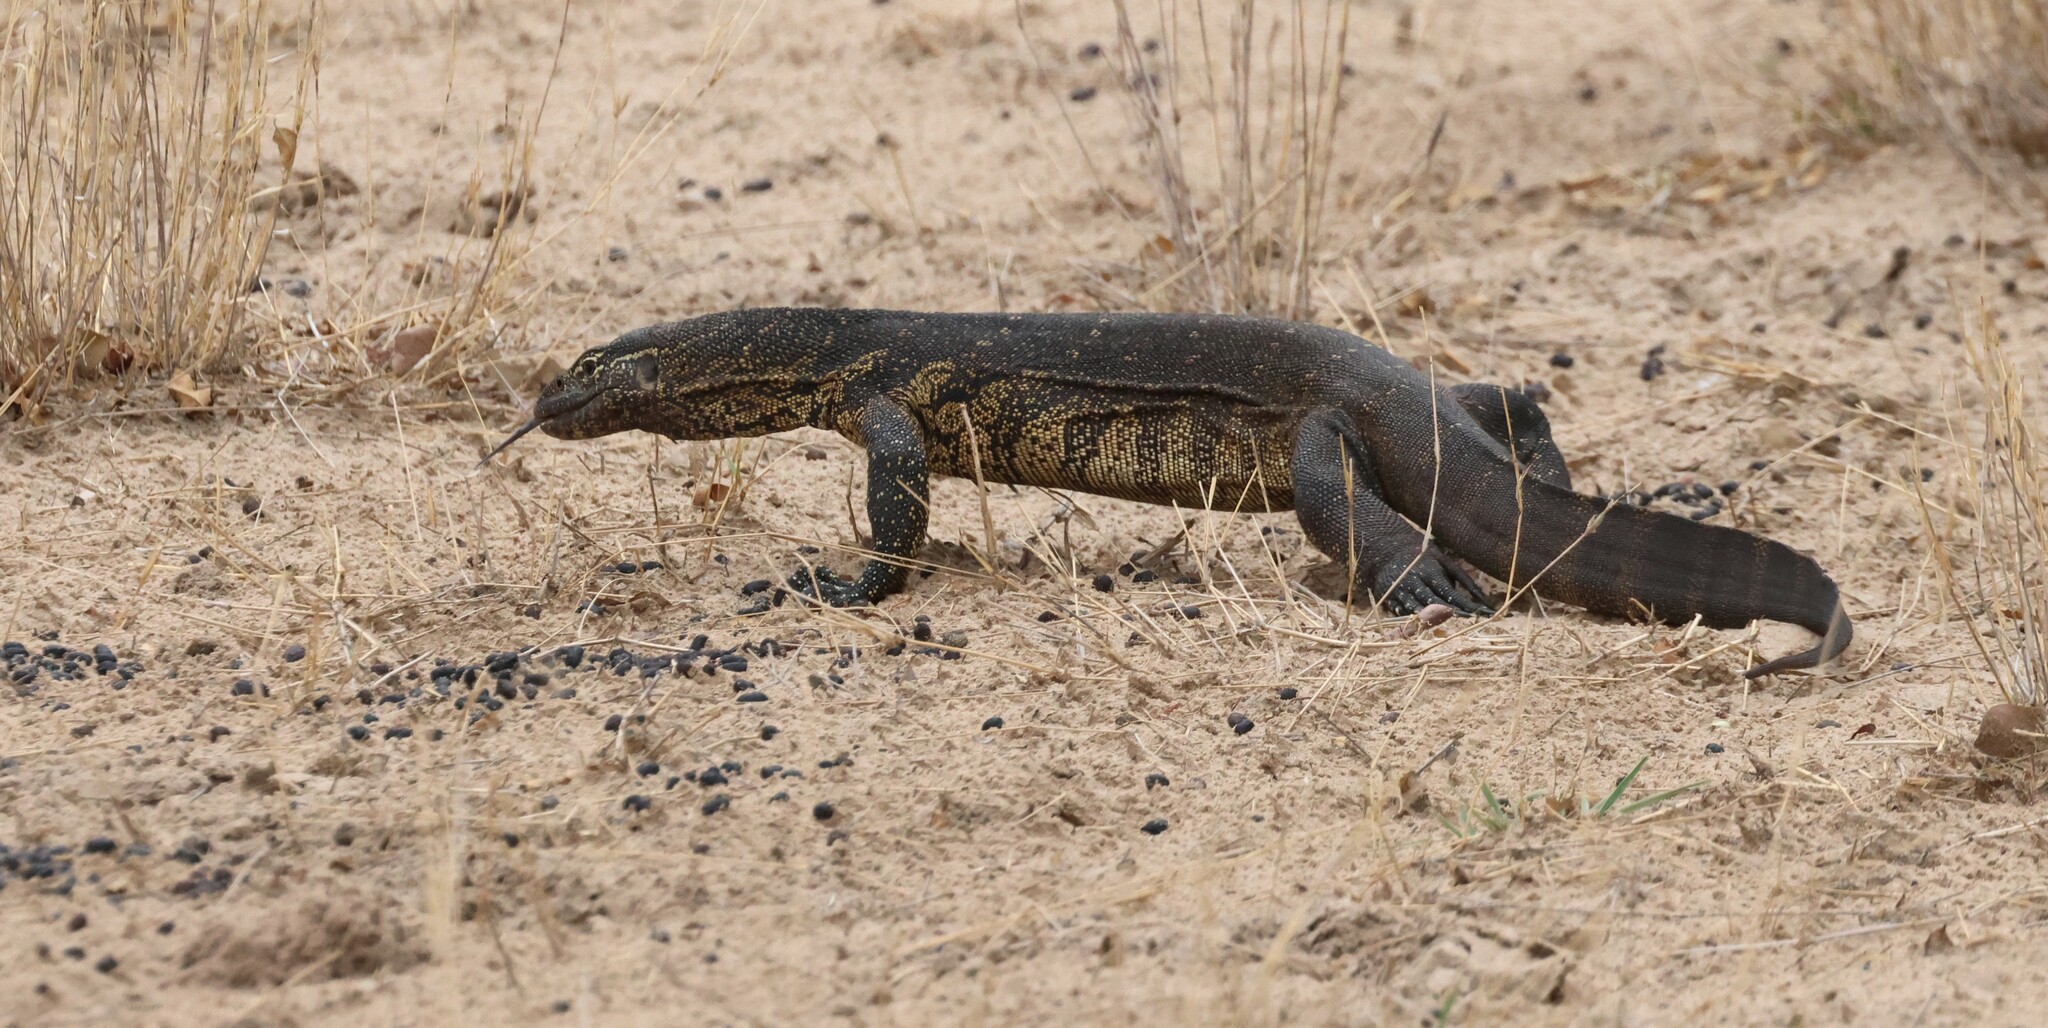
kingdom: Animalia
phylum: Chordata
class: Squamata
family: Varanidae
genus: Varanus
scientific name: Varanus niloticus
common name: Nile monitor
